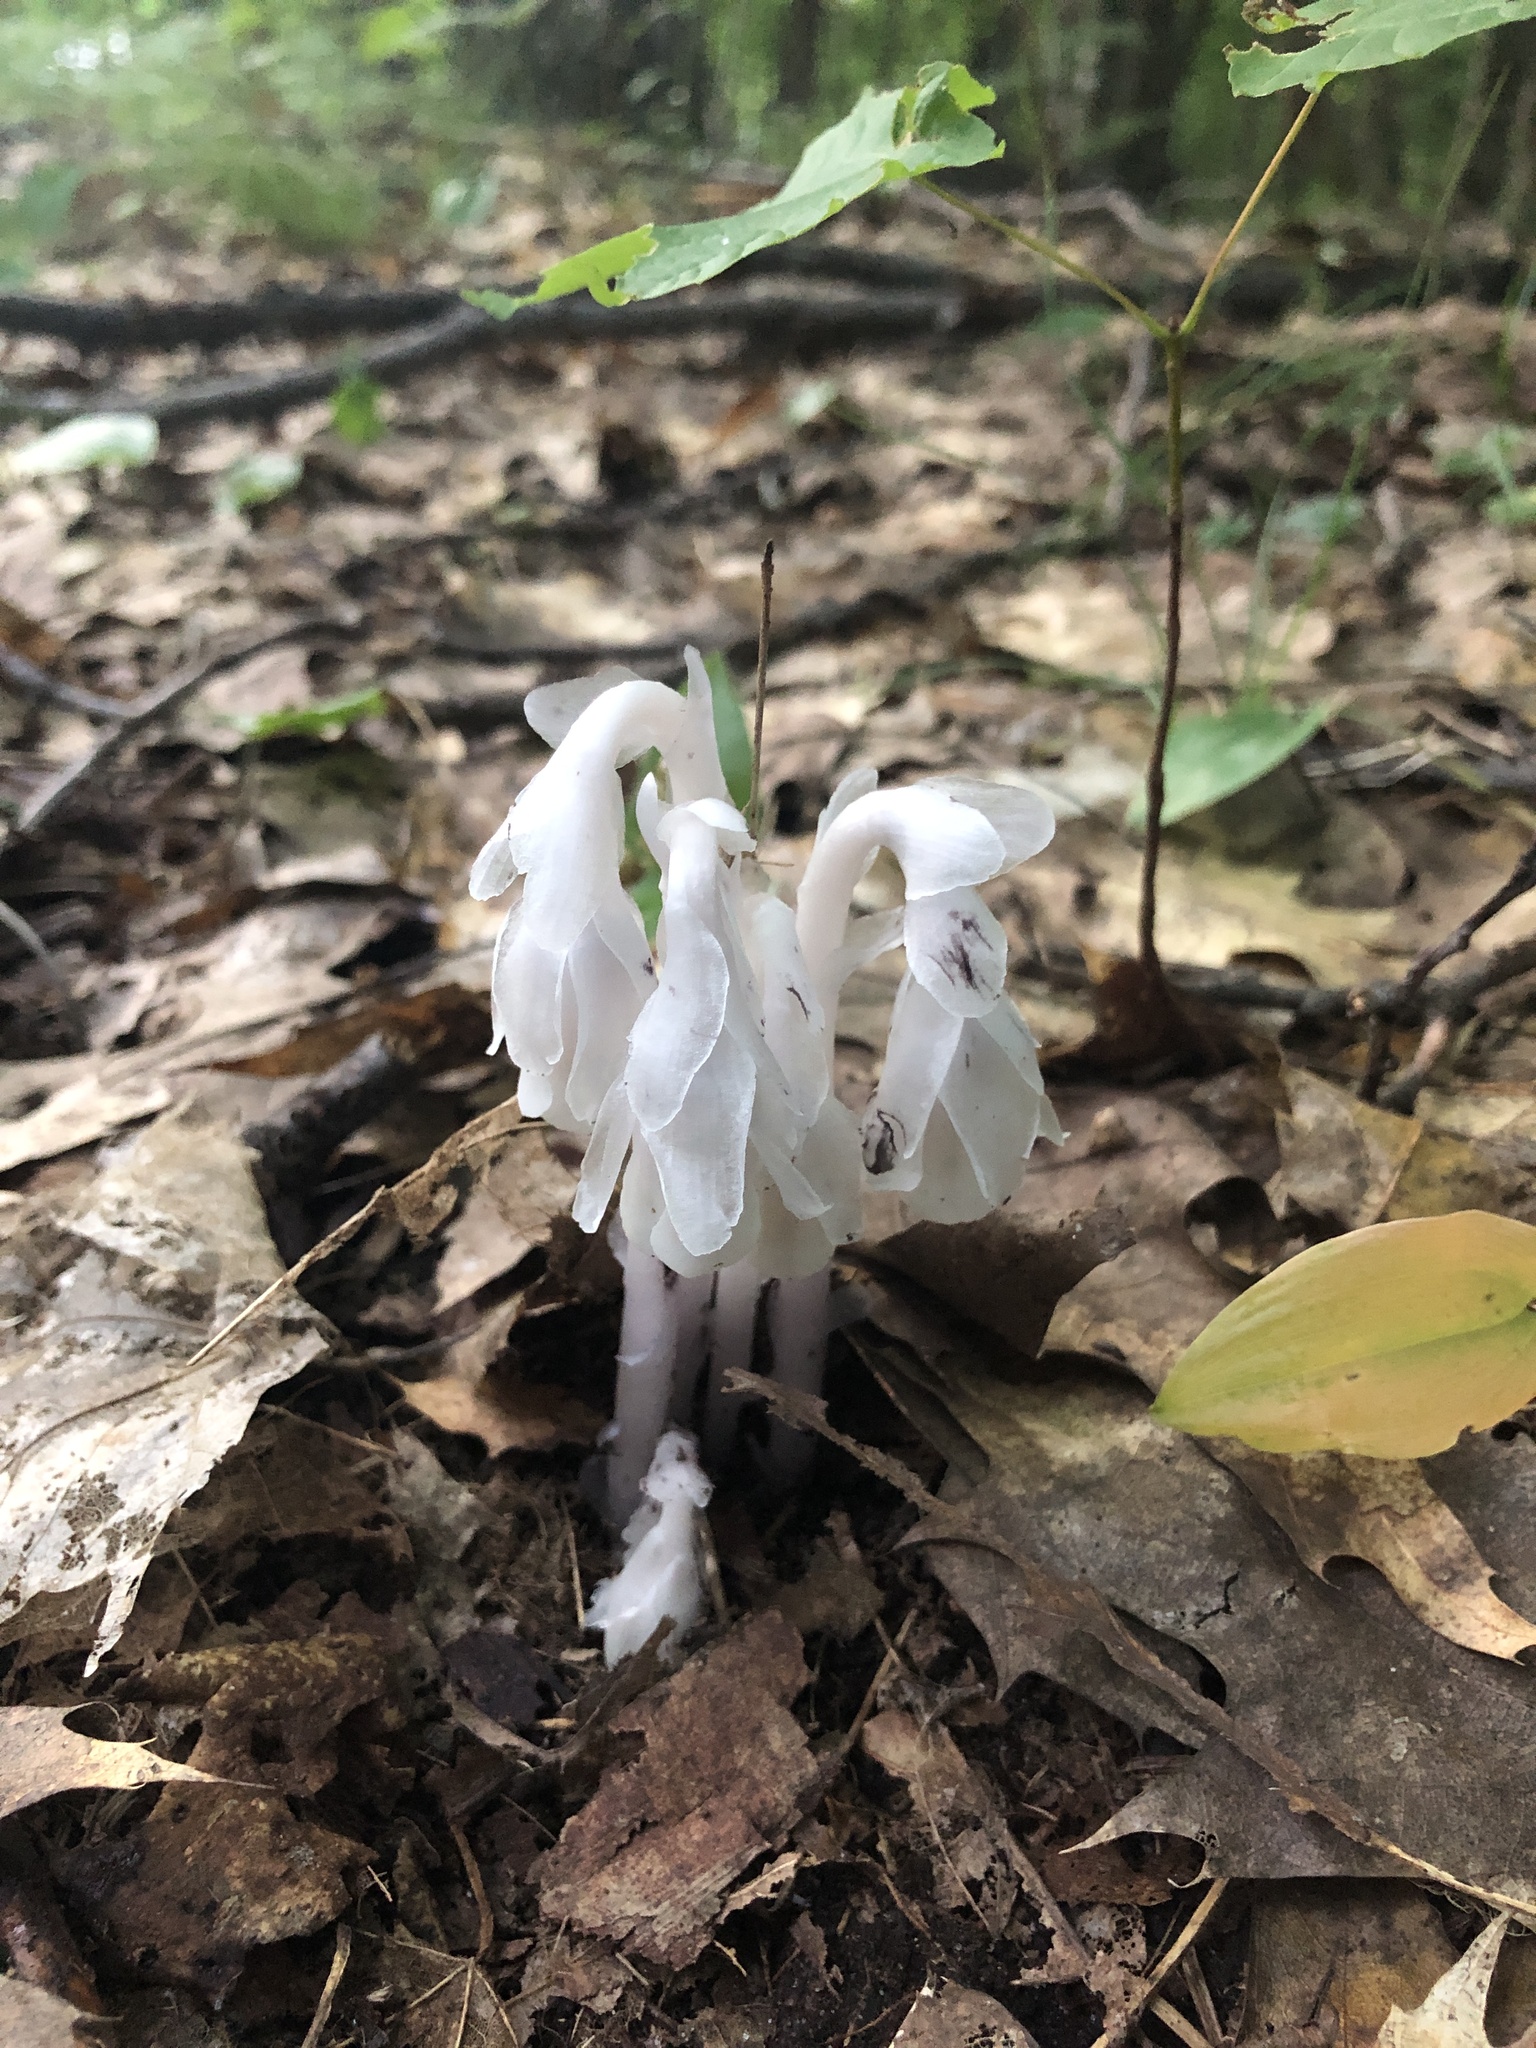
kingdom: Plantae
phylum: Tracheophyta
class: Magnoliopsida
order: Ericales
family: Ericaceae
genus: Monotropa
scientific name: Monotropa uniflora
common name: Convulsion root
